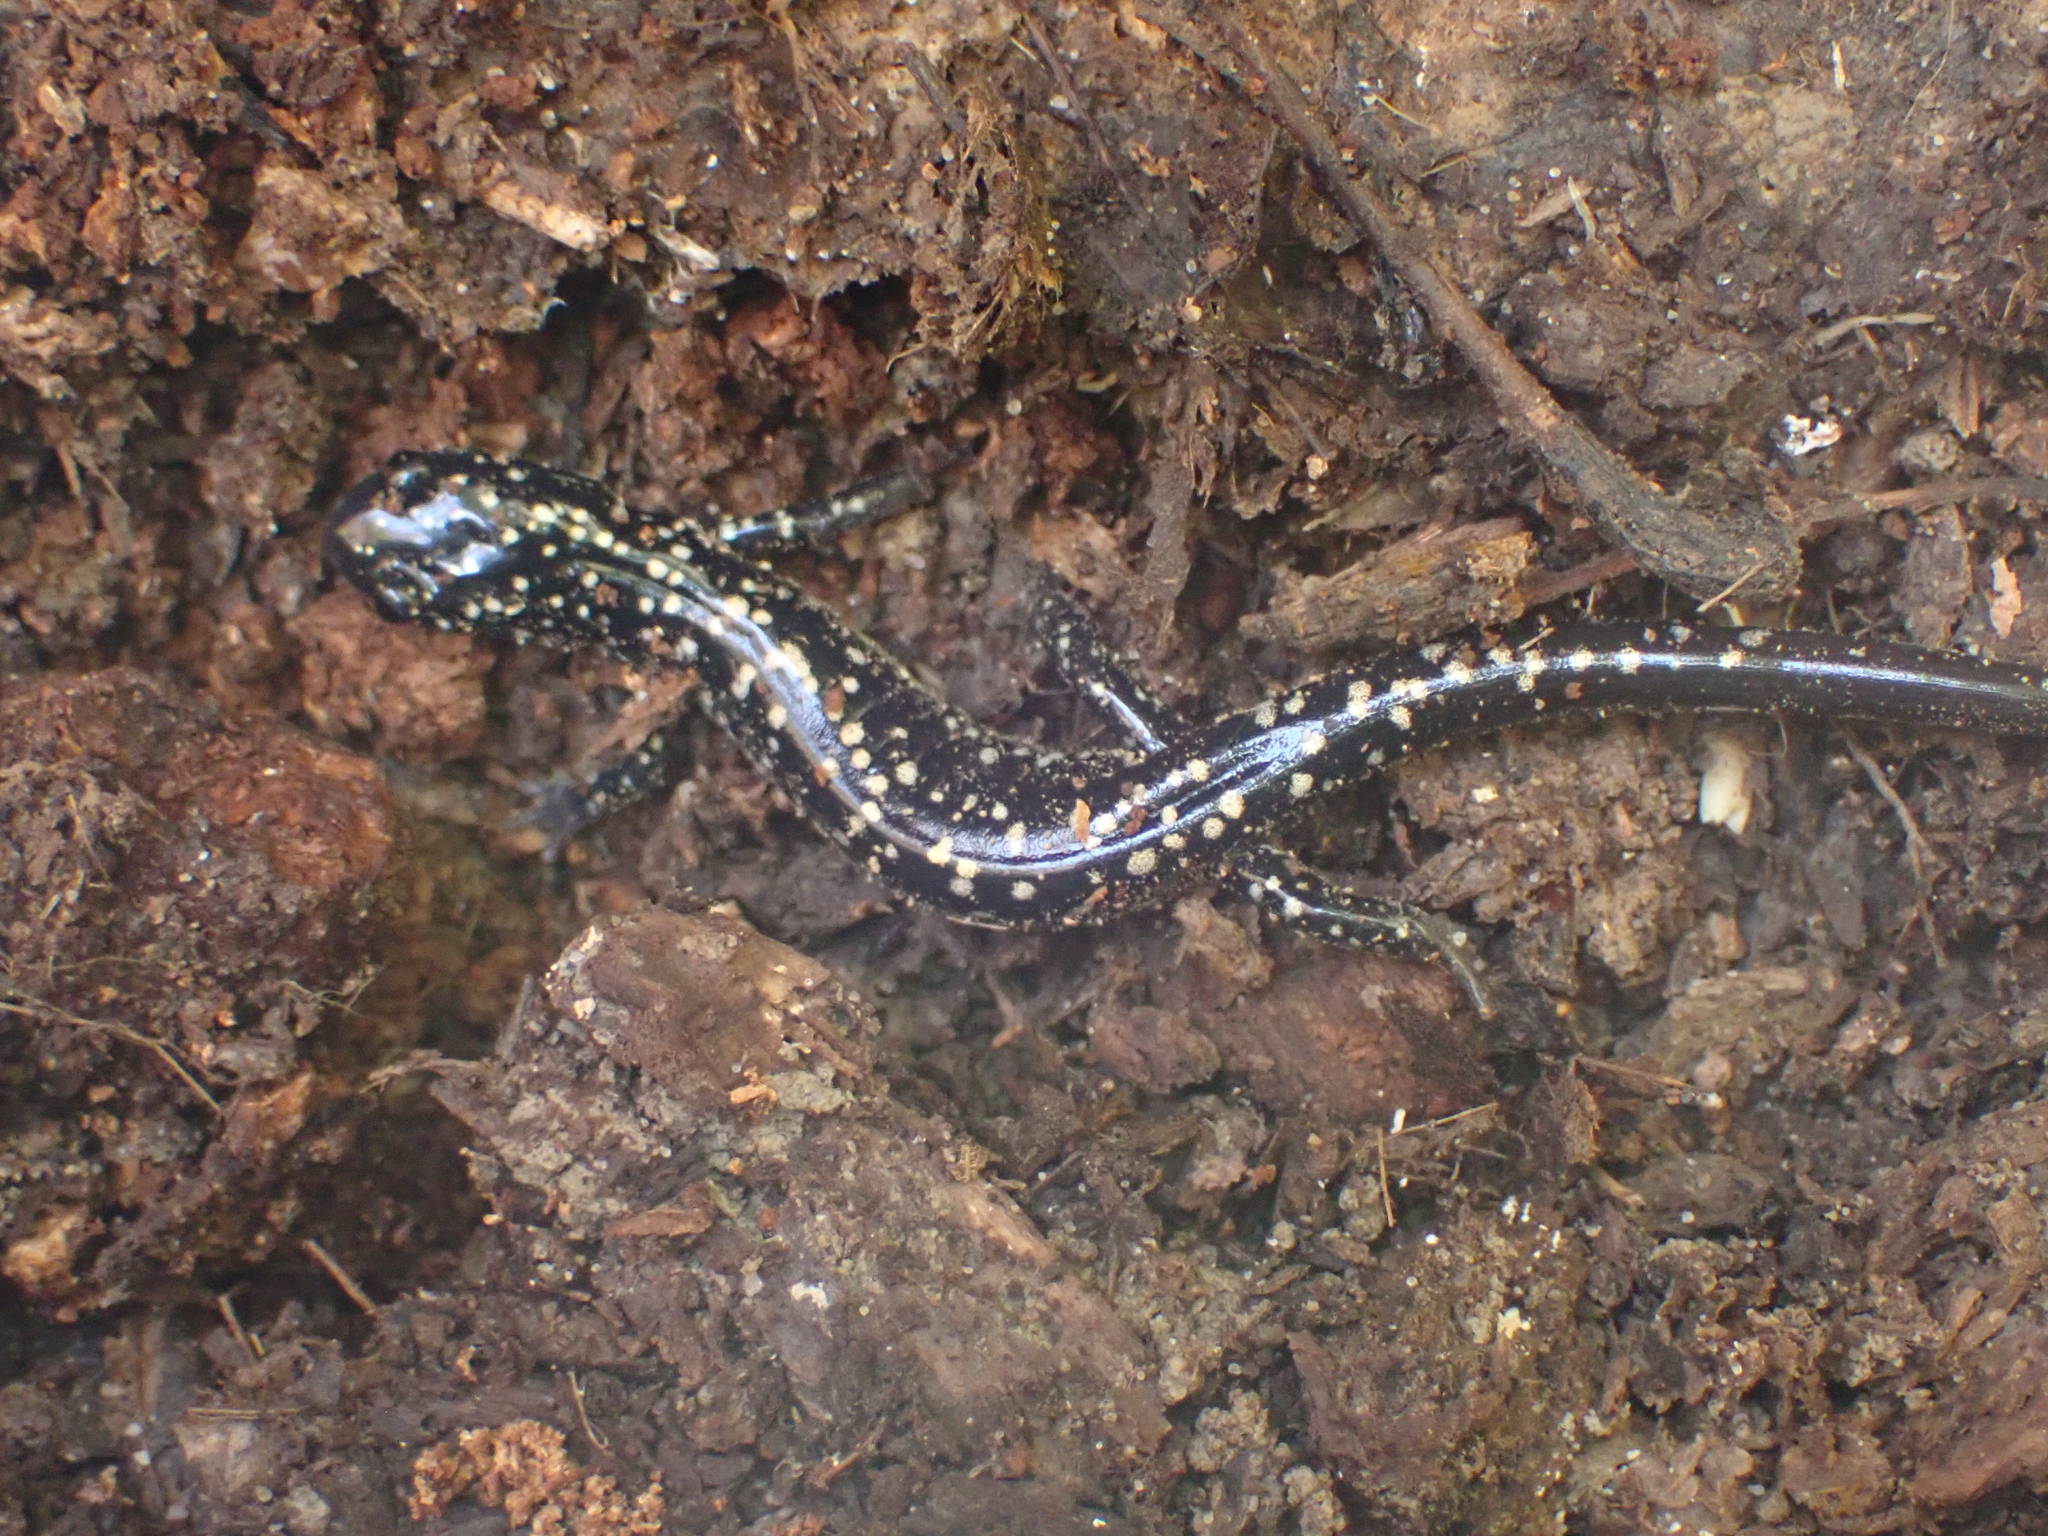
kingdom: Animalia
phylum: Chordata
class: Amphibia
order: Caudata
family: Plethodontidae
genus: Plethodon
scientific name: Plethodon glutinosus
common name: Northern slimy salamander
